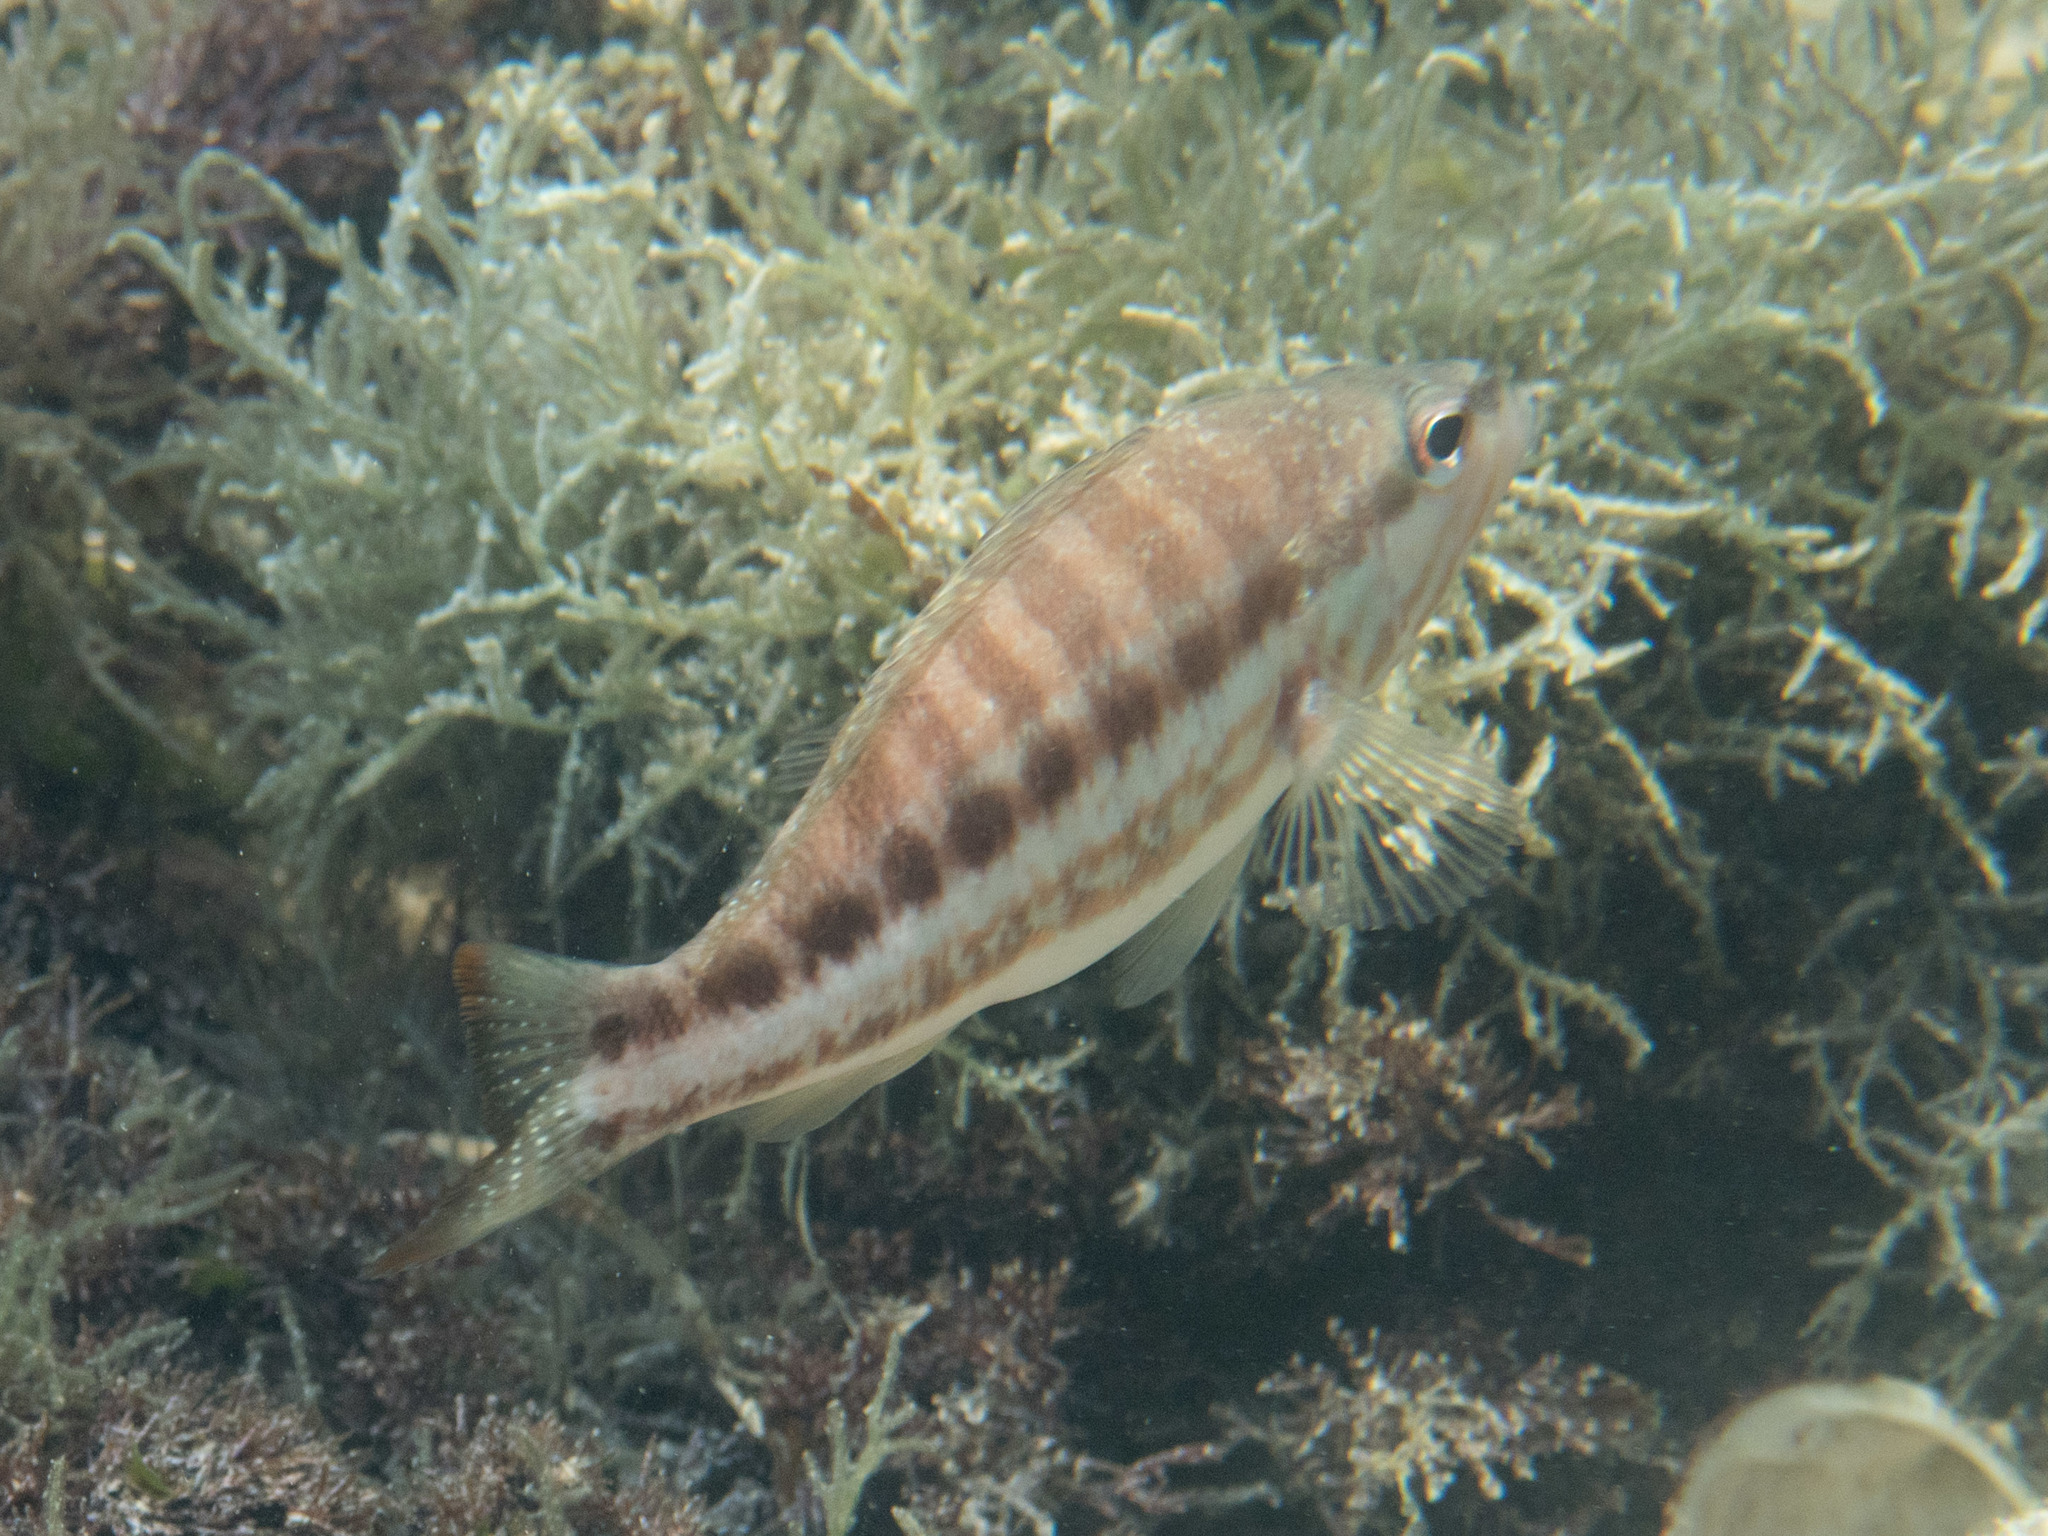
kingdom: Animalia
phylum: Chordata
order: Perciformes
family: Serranidae
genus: Serranus
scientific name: Serranus cabrilla
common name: Comber
